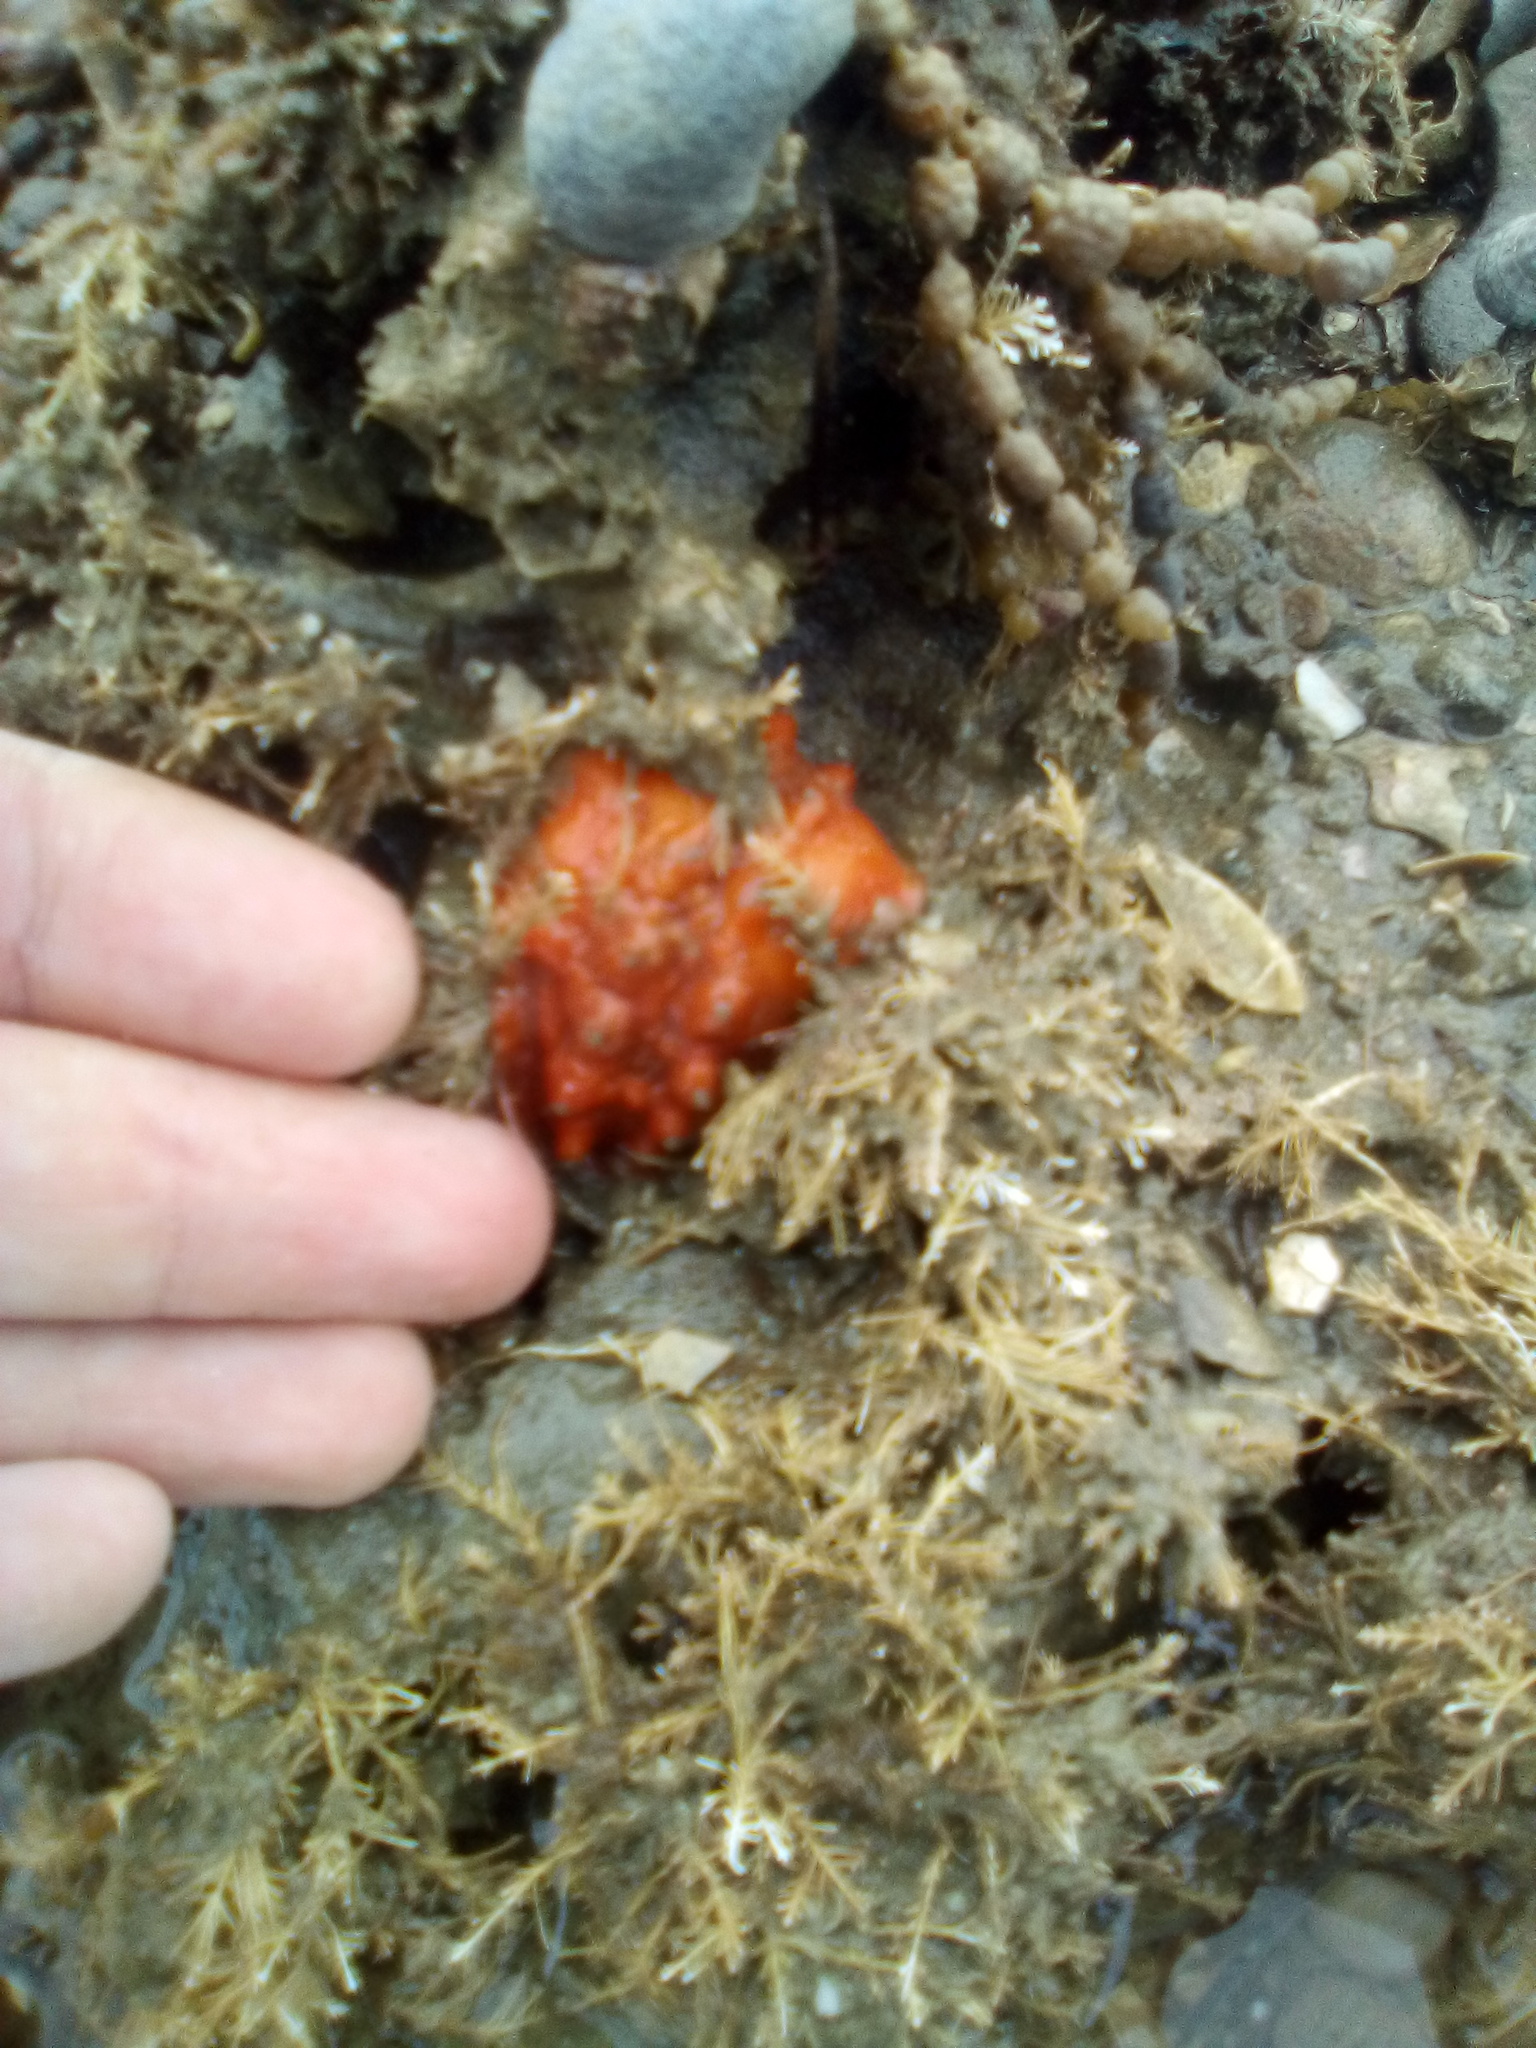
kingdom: Animalia
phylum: Mollusca
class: Polyplacophora
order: Chitonida
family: Acanthochitonidae
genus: Cryptoconchus
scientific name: Cryptoconchus porosus
